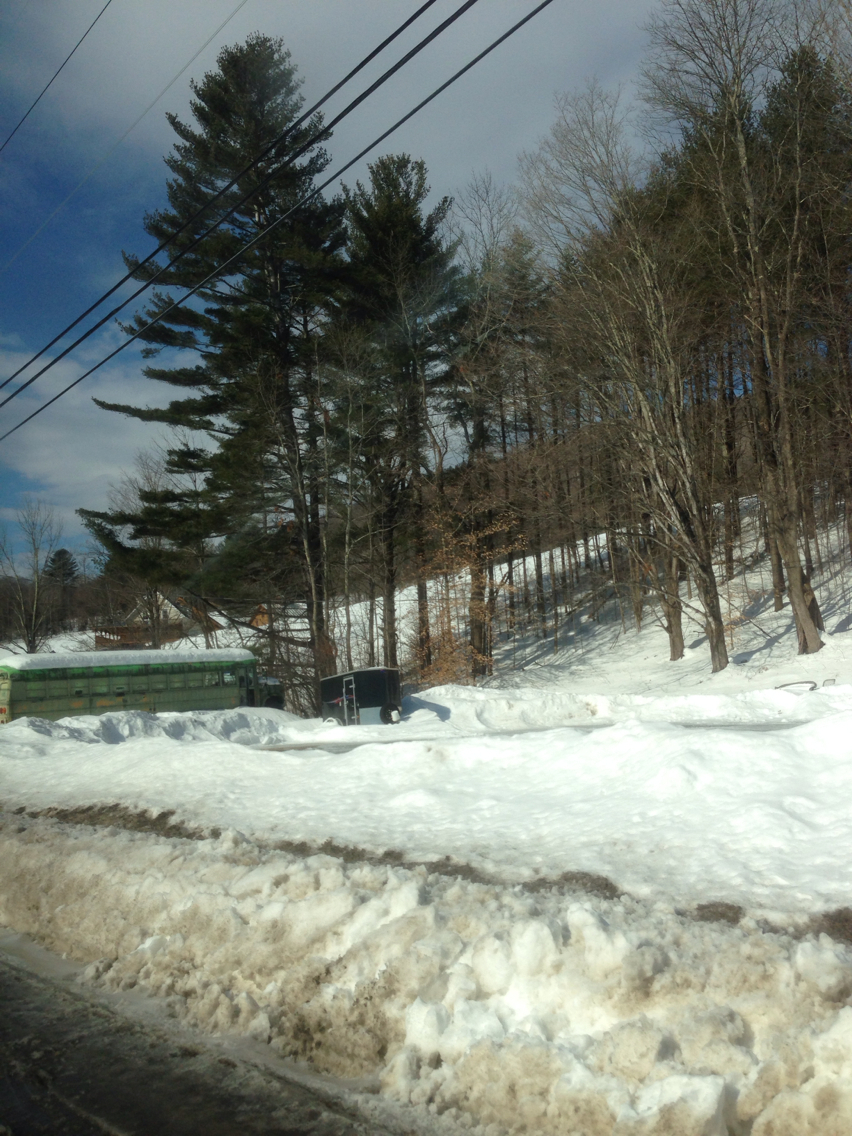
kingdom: Plantae
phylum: Tracheophyta
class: Magnoliopsida
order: Fagales
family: Fagaceae
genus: Fagus
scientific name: Fagus grandifolia
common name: American beech
